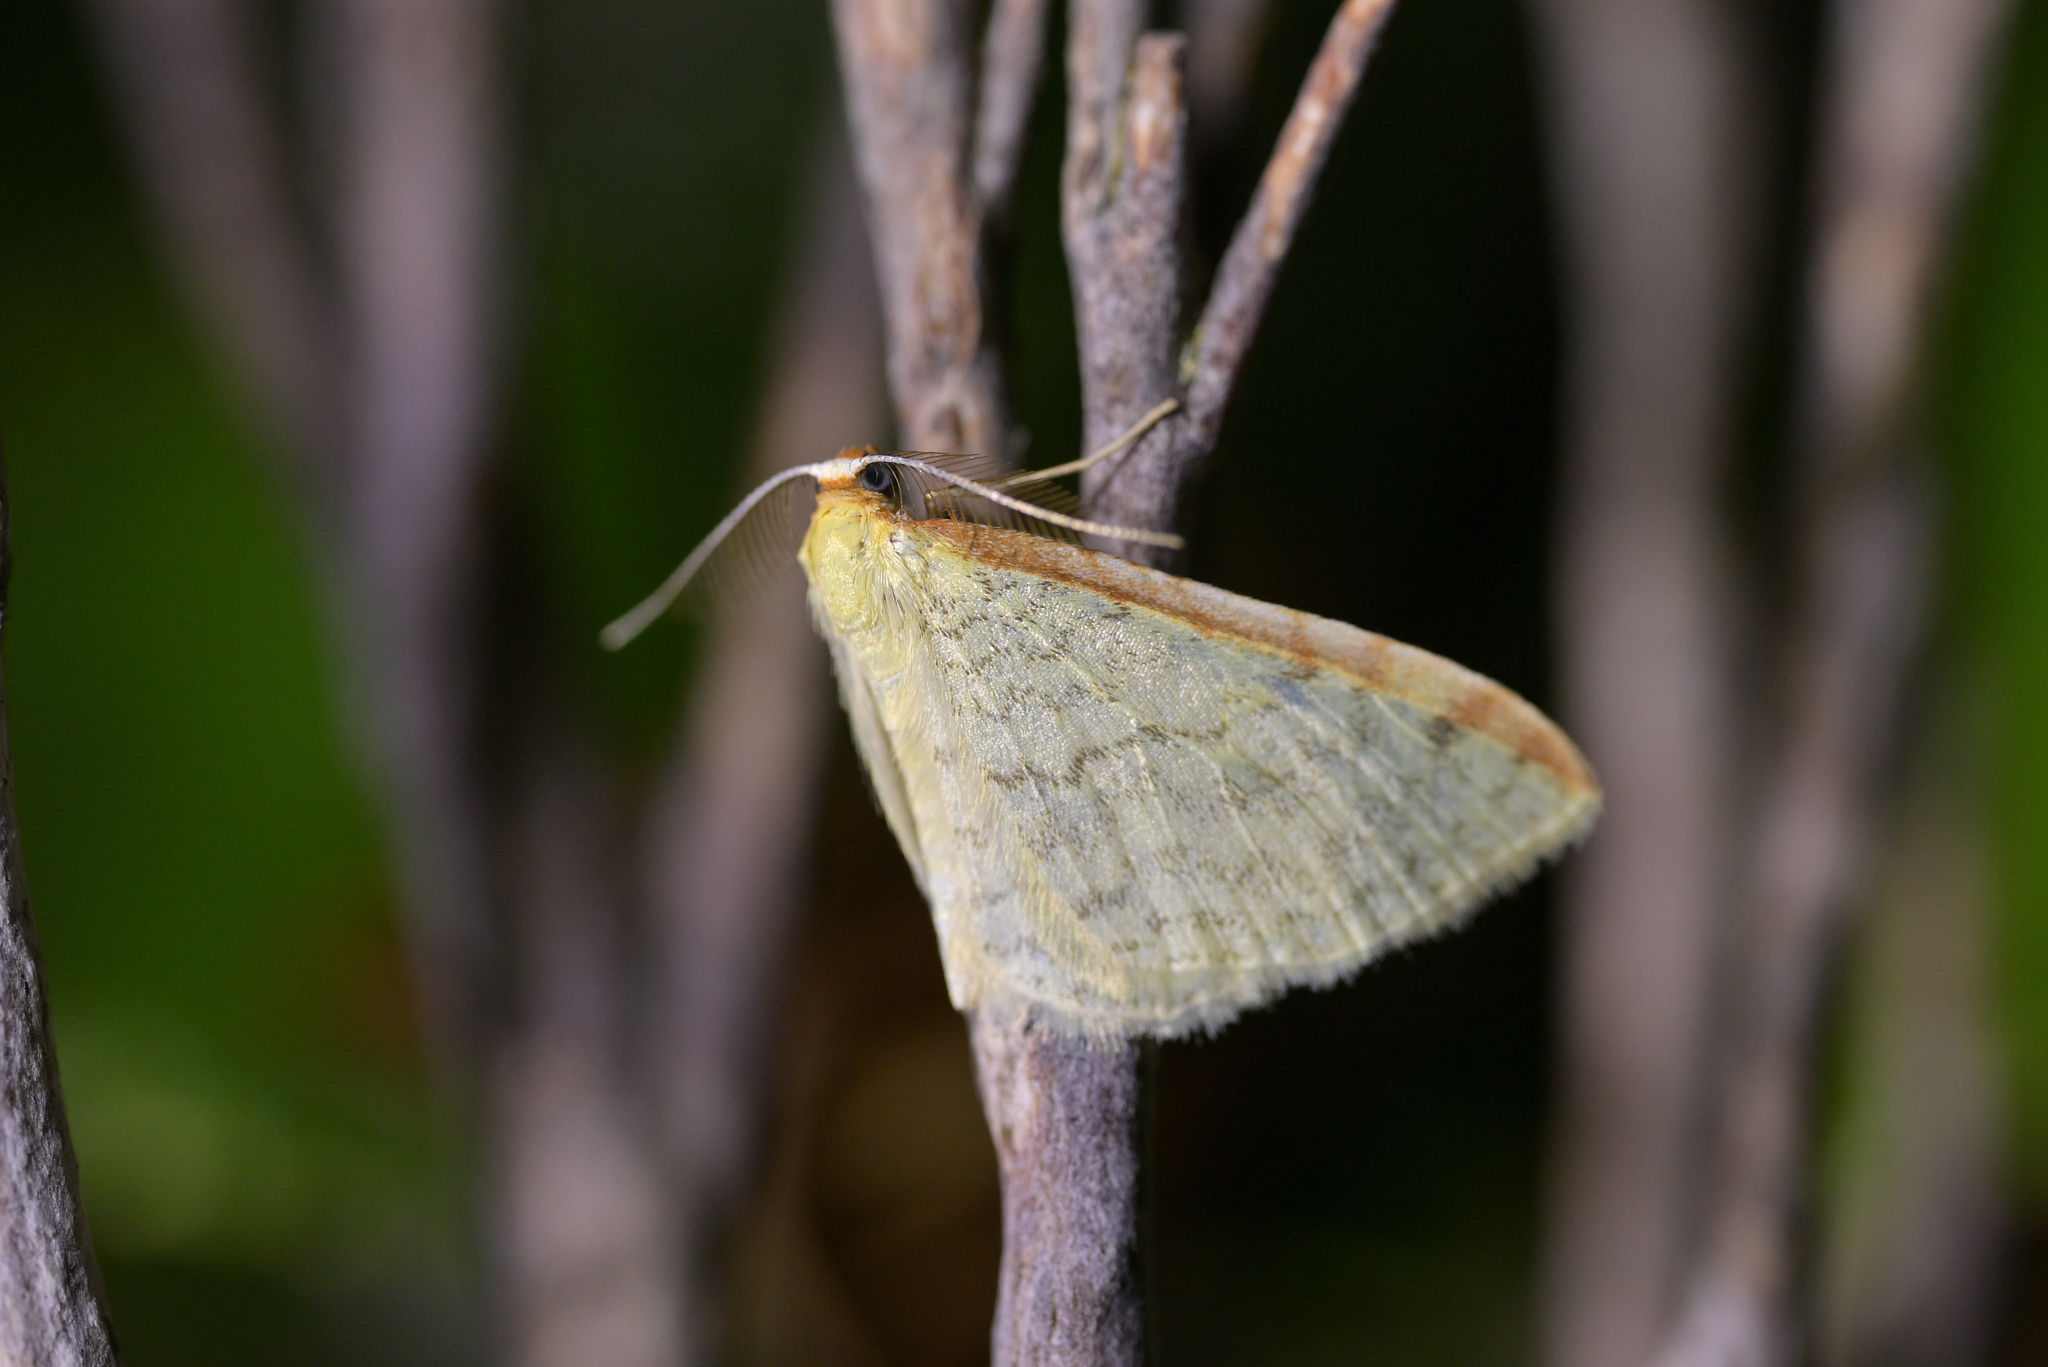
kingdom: Animalia
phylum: Arthropoda
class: Insecta
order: Lepidoptera
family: Geometridae
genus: Epiphryne
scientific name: Epiphryne undosata
